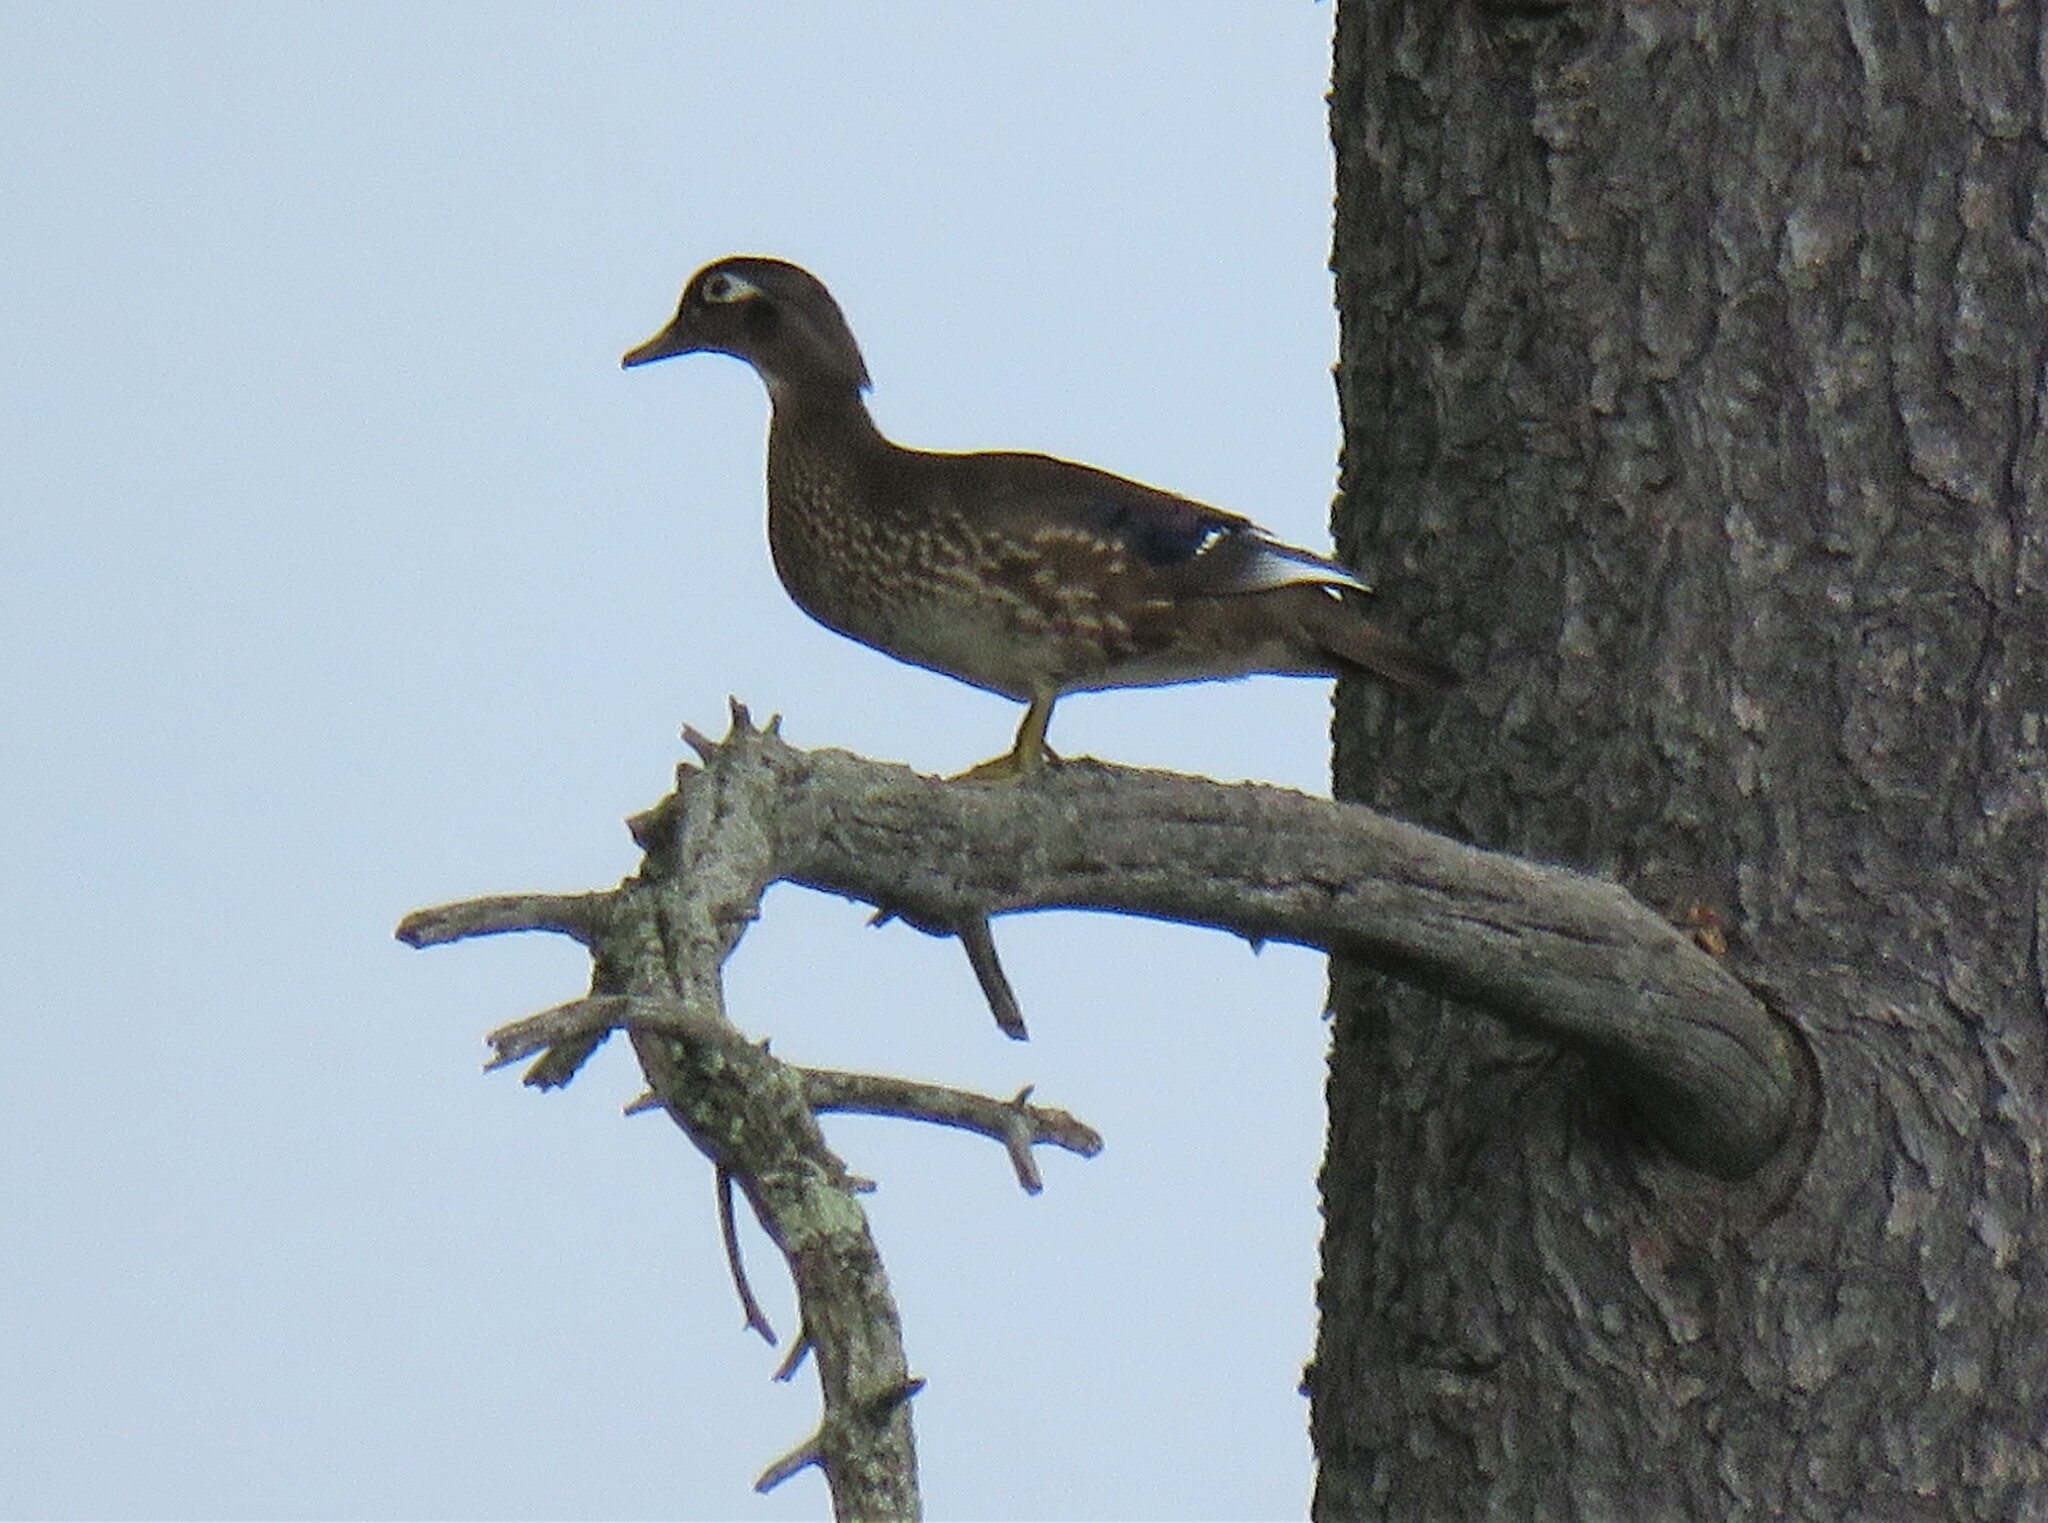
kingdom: Animalia
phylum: Chordata
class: Aves
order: Anseriformes
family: Anatidae
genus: Aix
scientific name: Aix sponsa
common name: Wood duck
